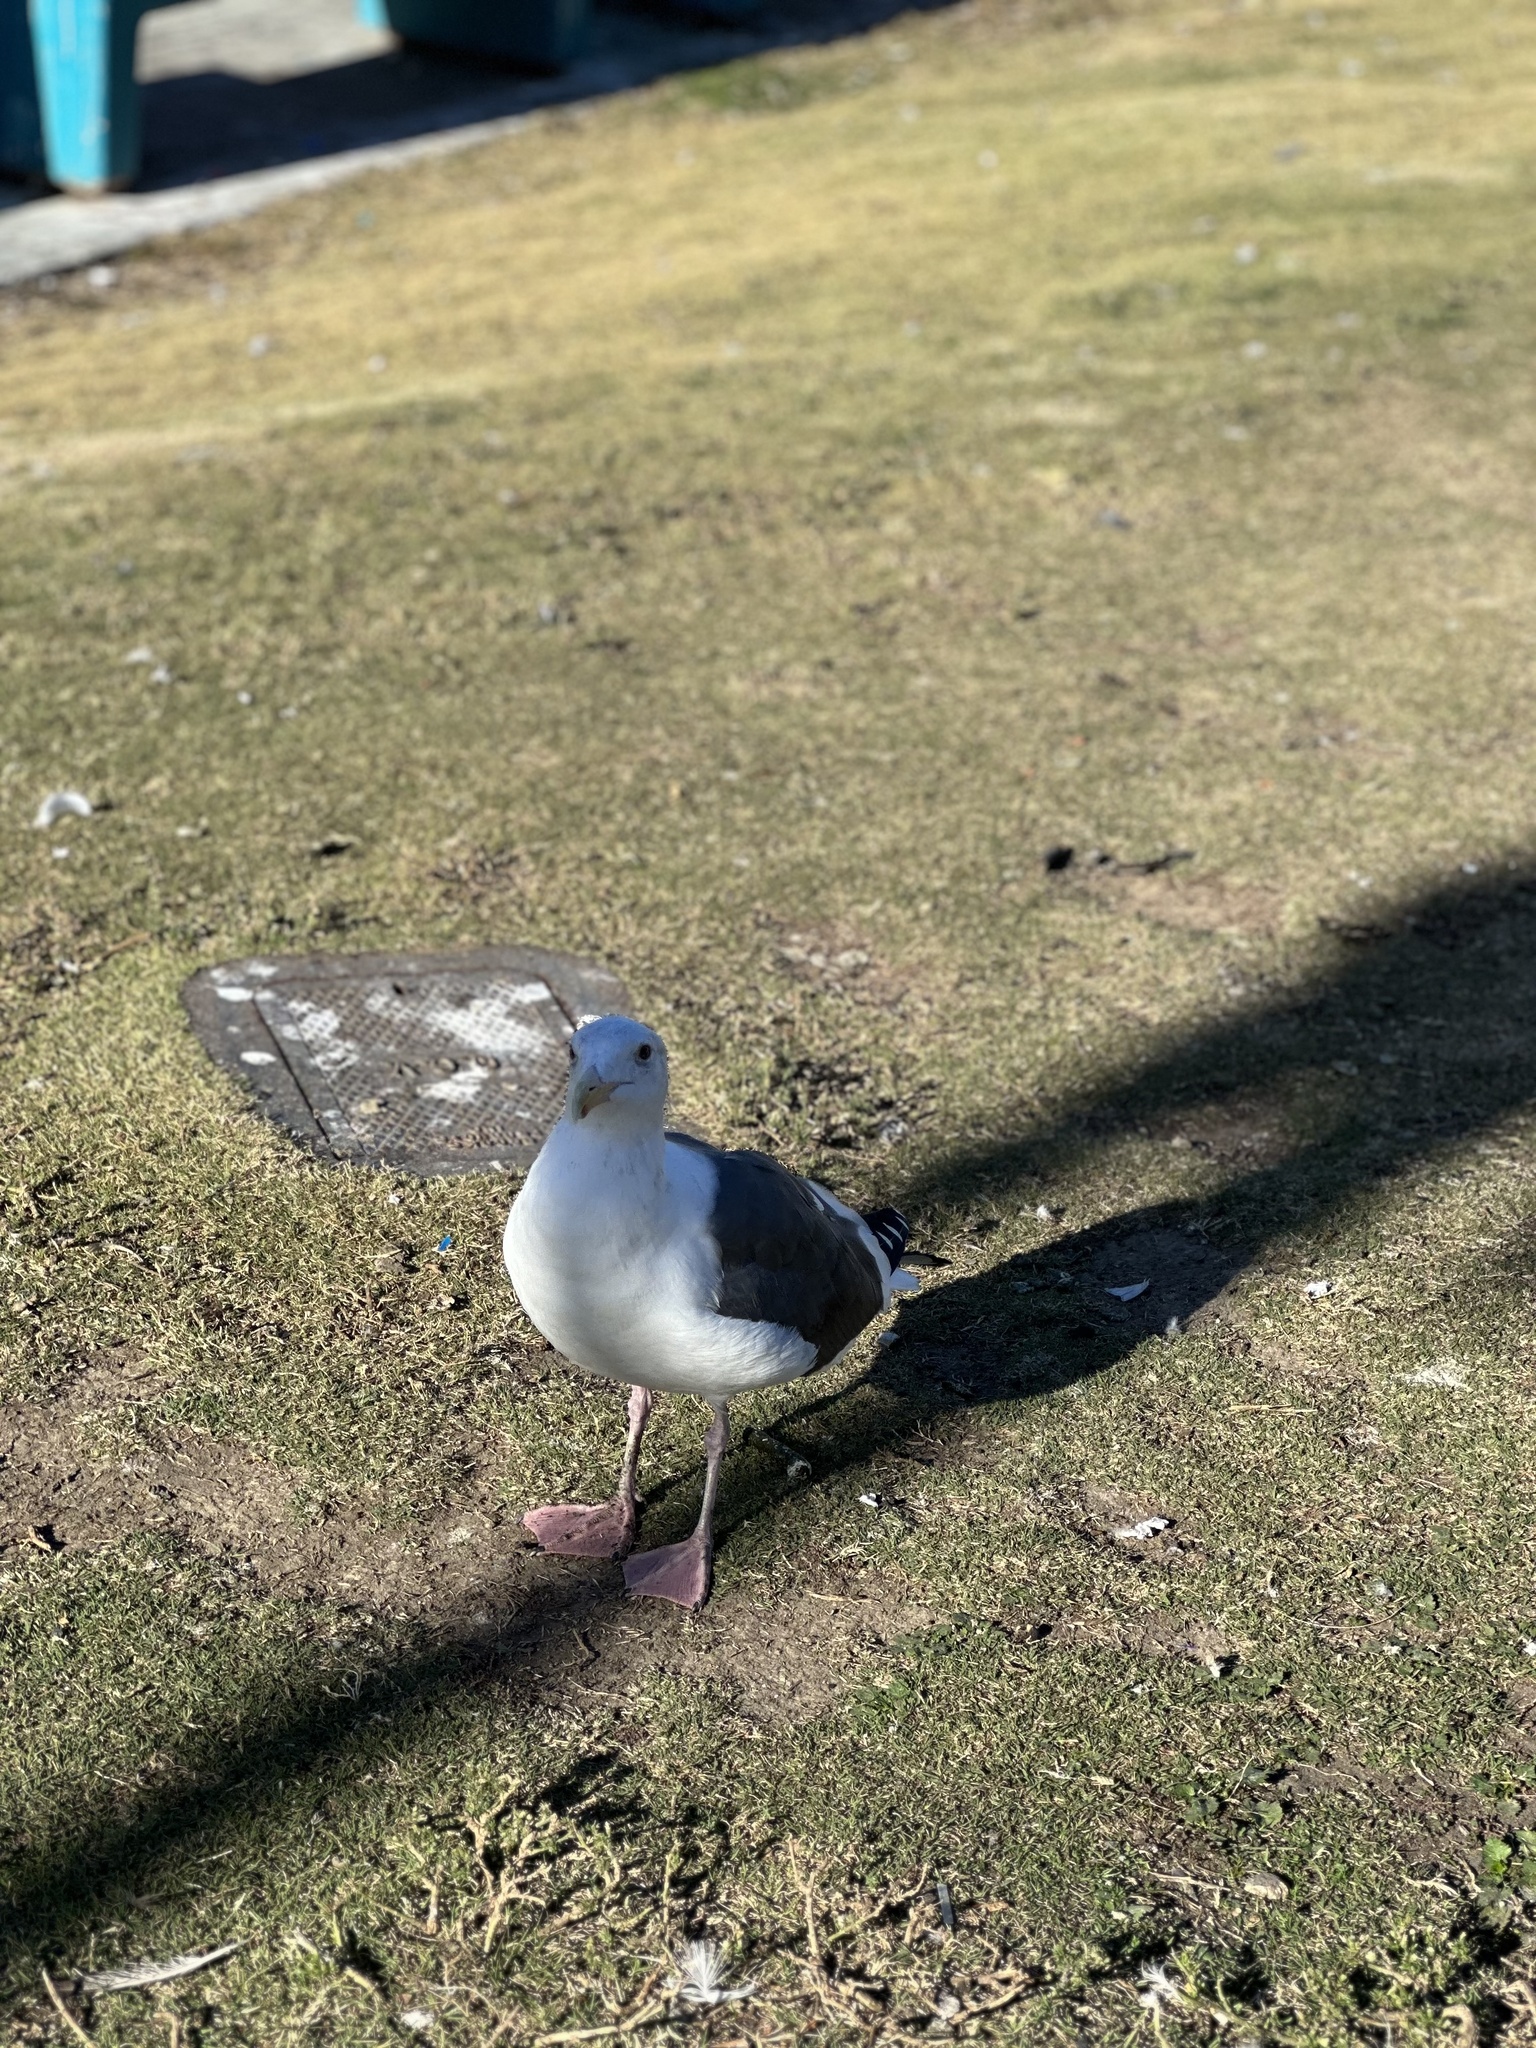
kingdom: Animalia
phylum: Chordata
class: Aves
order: Charadriiformes
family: Laridae
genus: Larus
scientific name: Larus occidentalis
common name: Western gull
